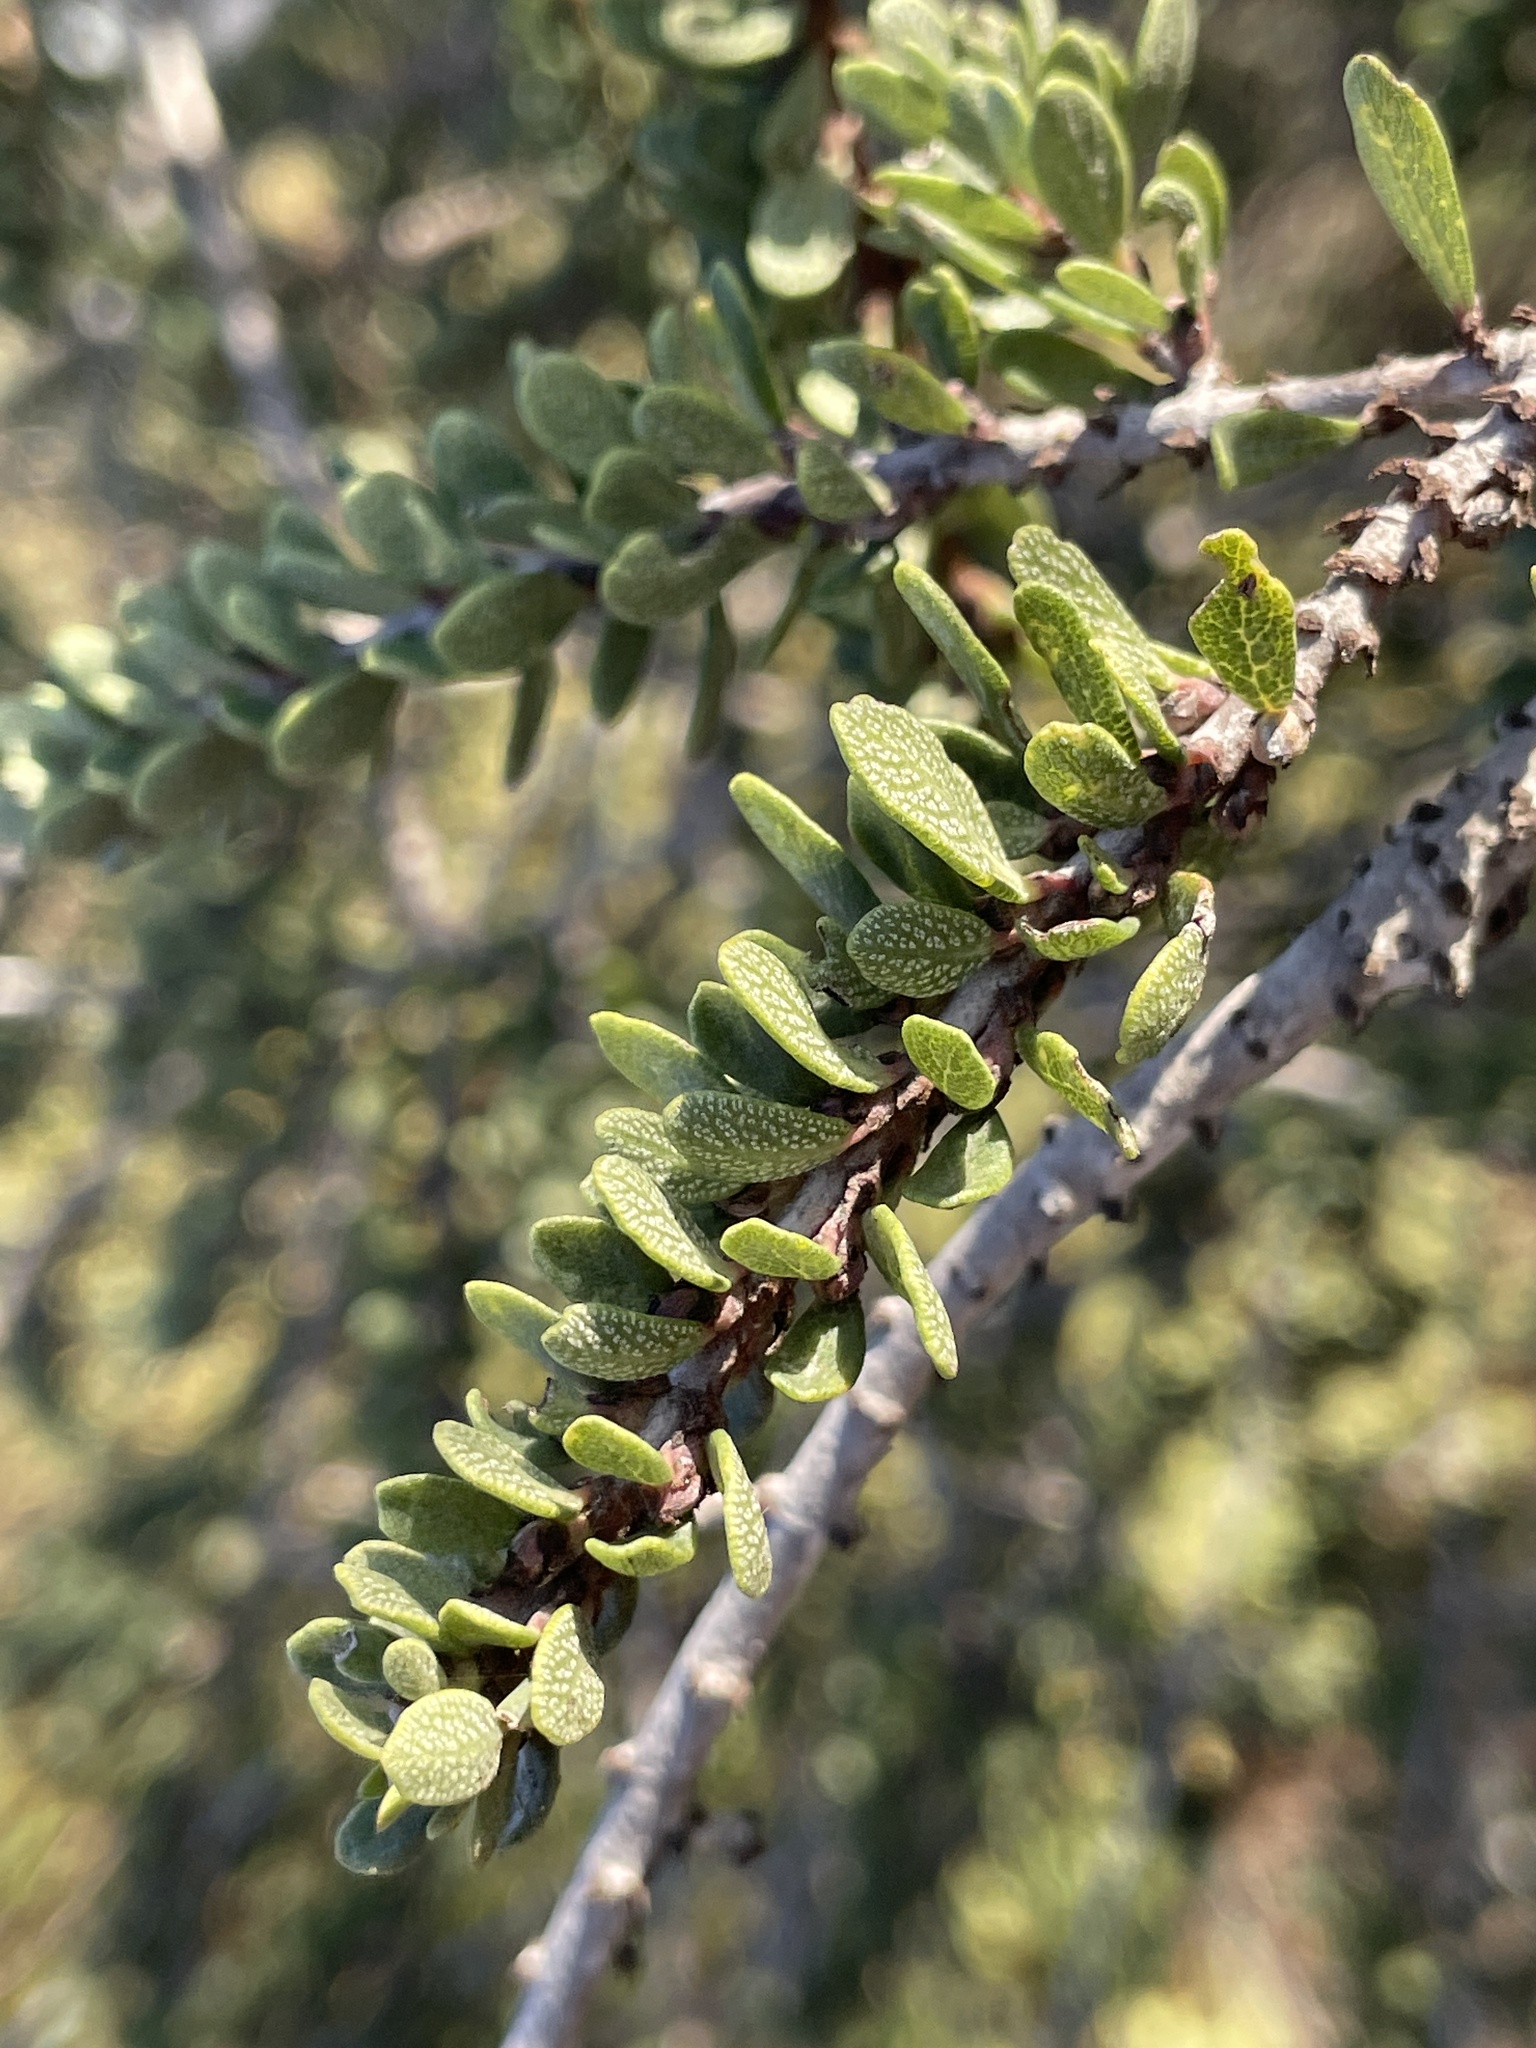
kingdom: Plantae
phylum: Tracheophyta
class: Magnoliopsida
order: Rosales
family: Rhamnaceae
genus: Ceanothus
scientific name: Ceanothus cuneatus
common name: Cuneate ceanothus
